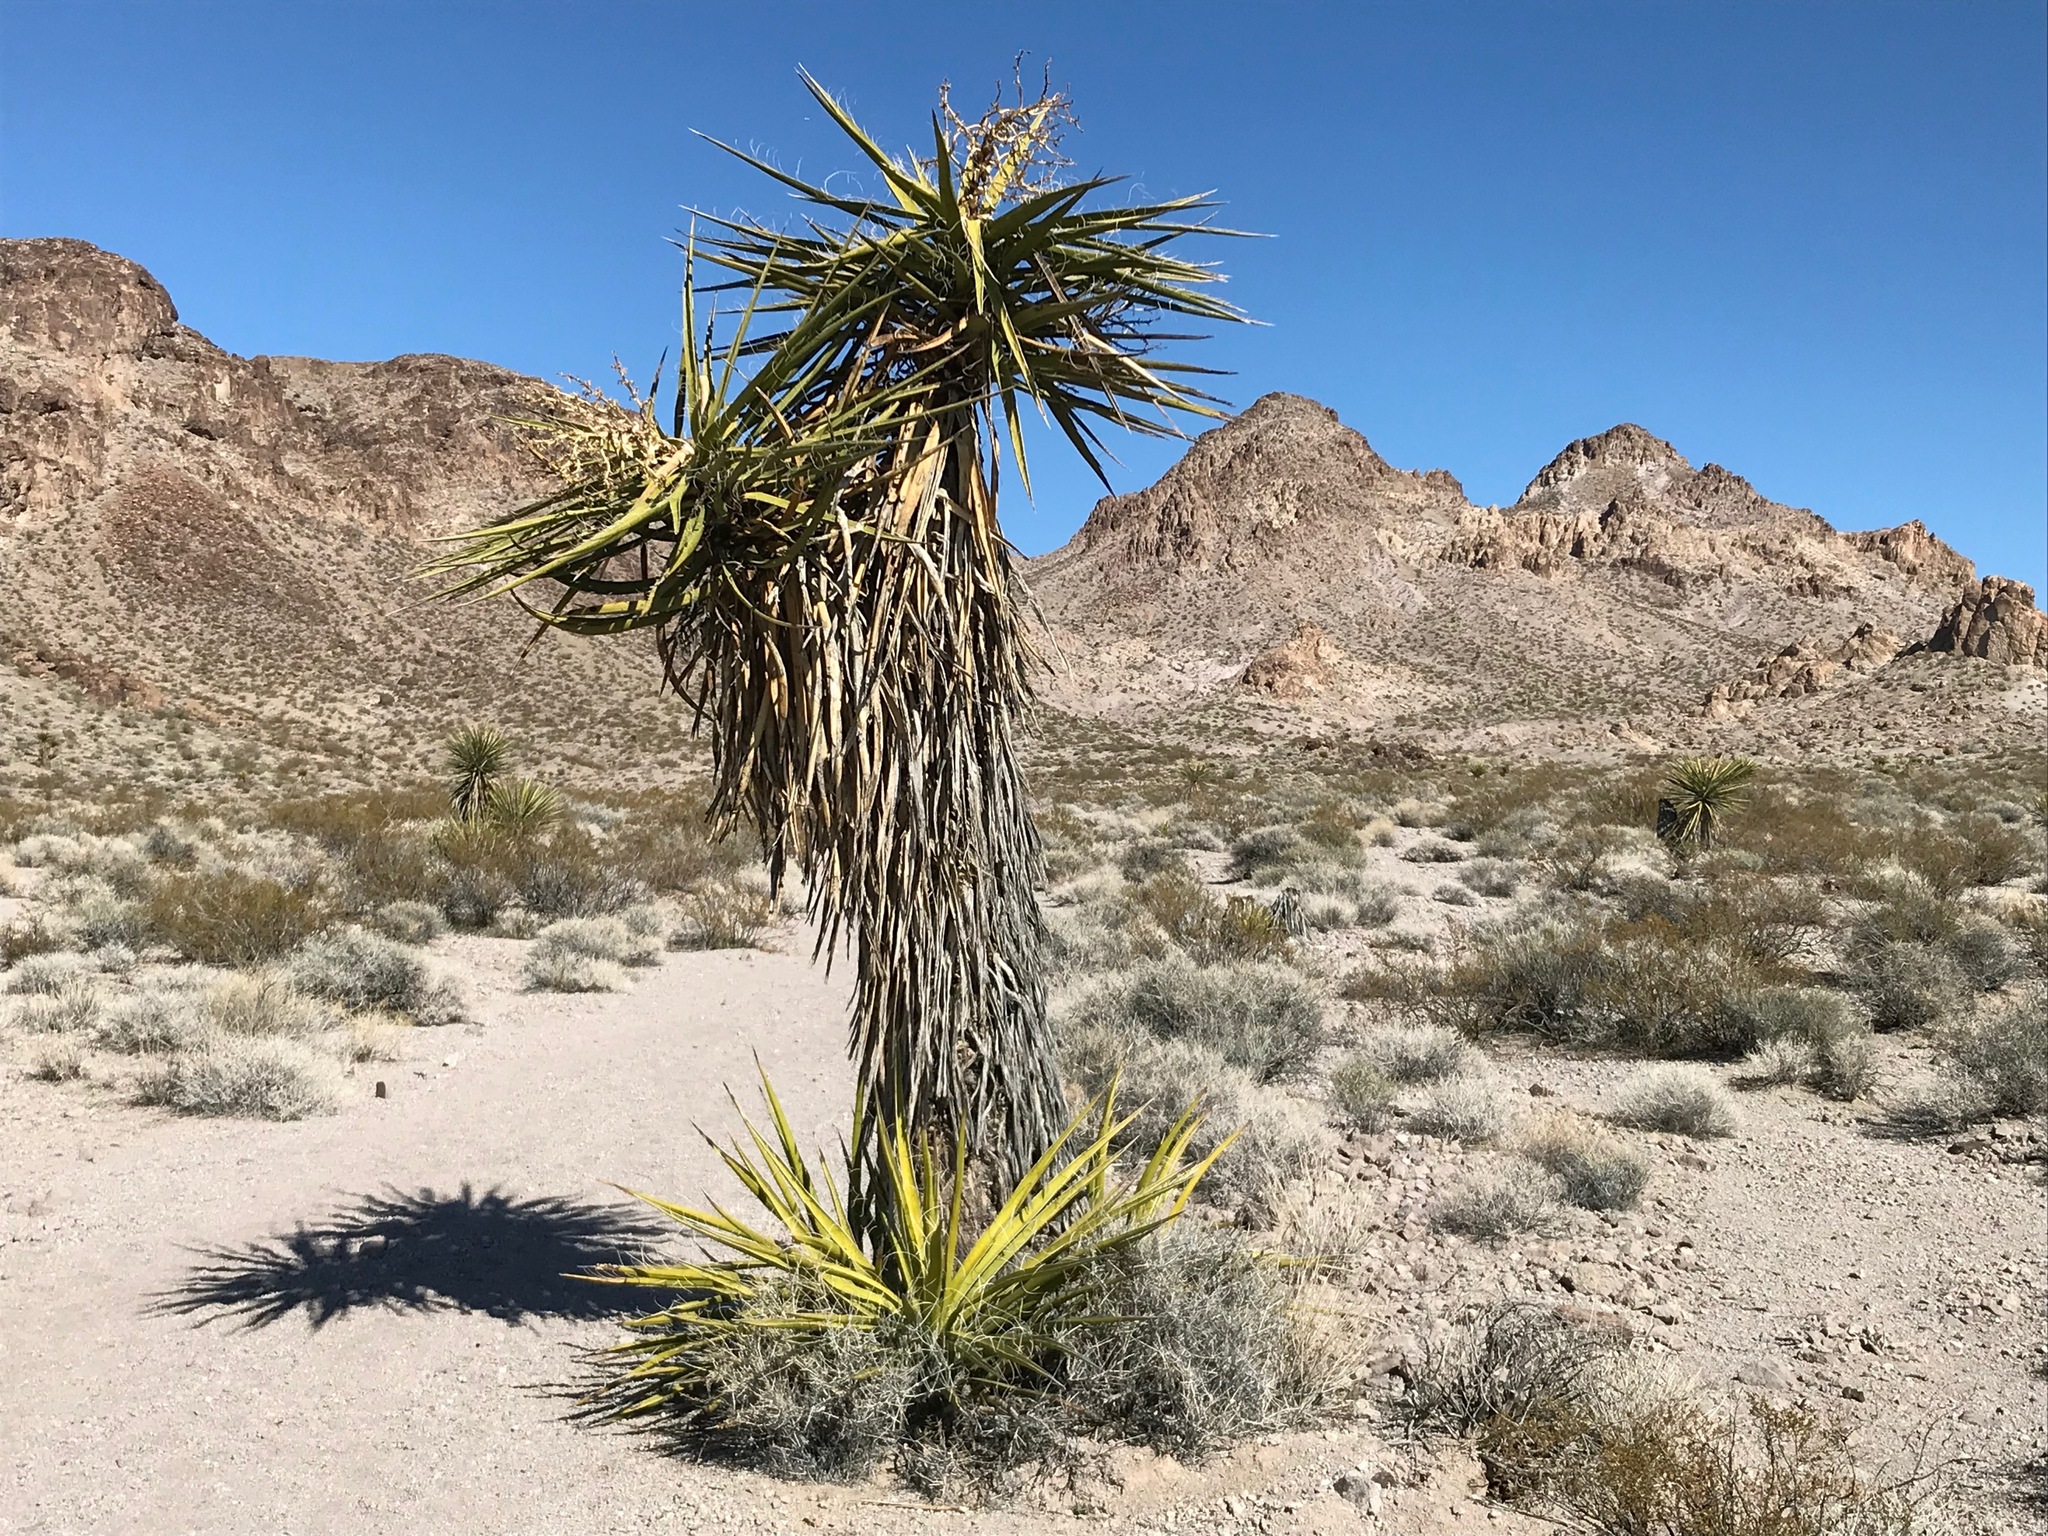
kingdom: Plantae
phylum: Tracheophyta
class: Liliopsida
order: Asparagales
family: Asparagaceae
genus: Yucca
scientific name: Yucca schidigera
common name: Mojave yucca
